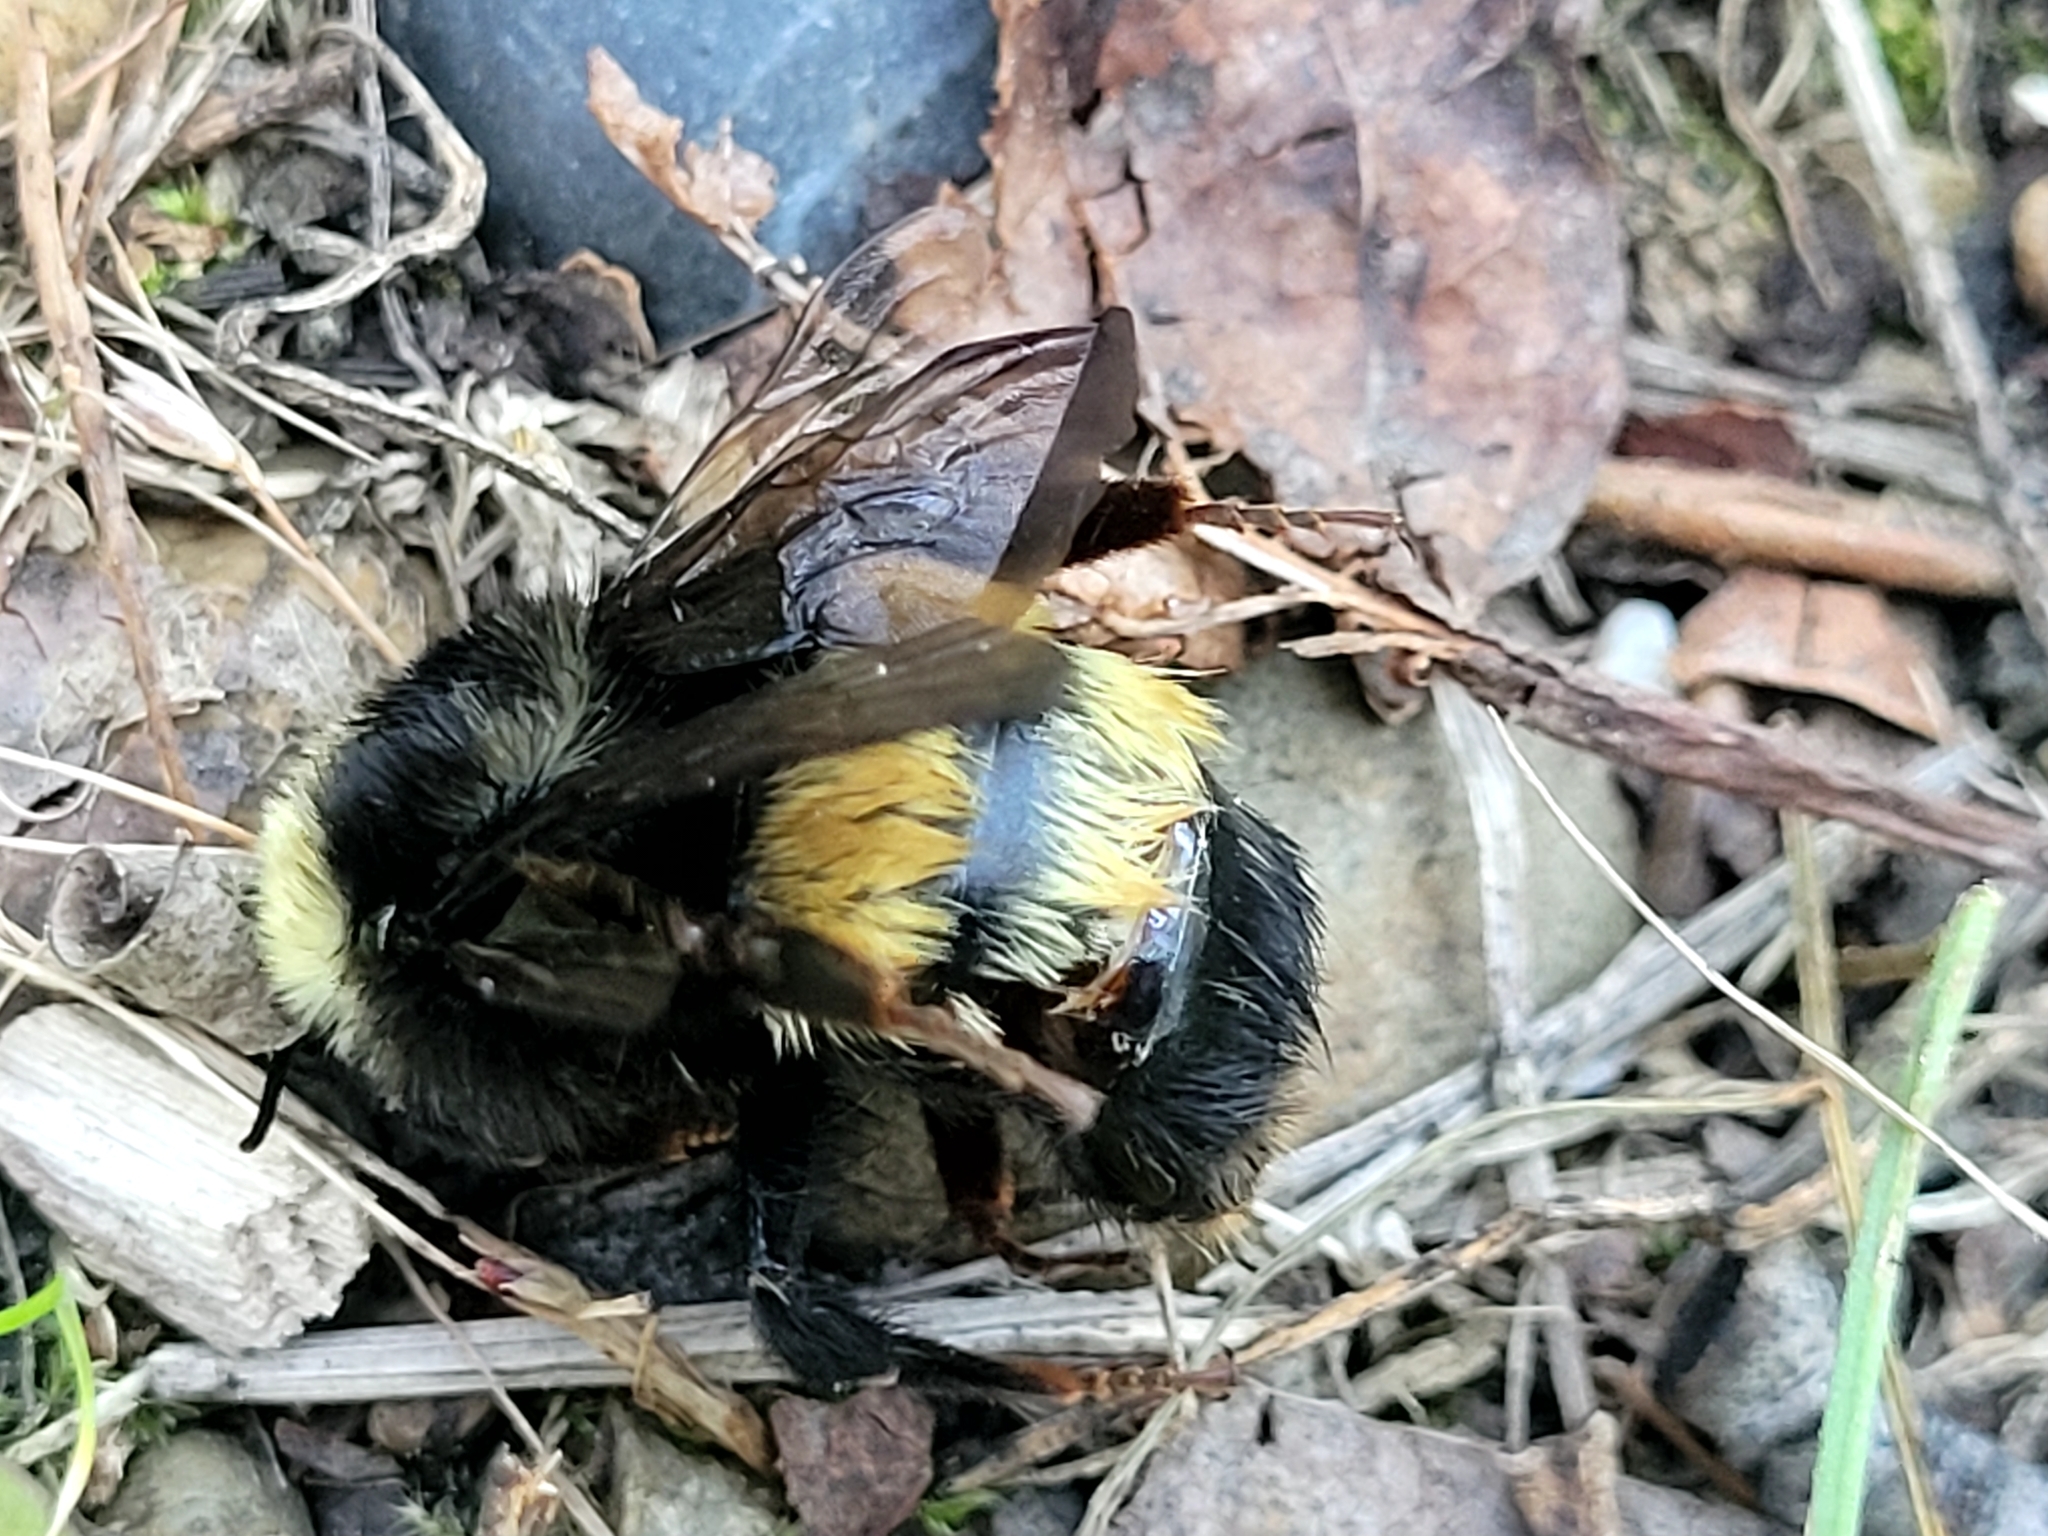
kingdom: Animalia
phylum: Arthropoda
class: Insecta
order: Hymenoptera
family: Apidae
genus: Bombus
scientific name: Bombus terricola
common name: Yellow-banded bumble bee
